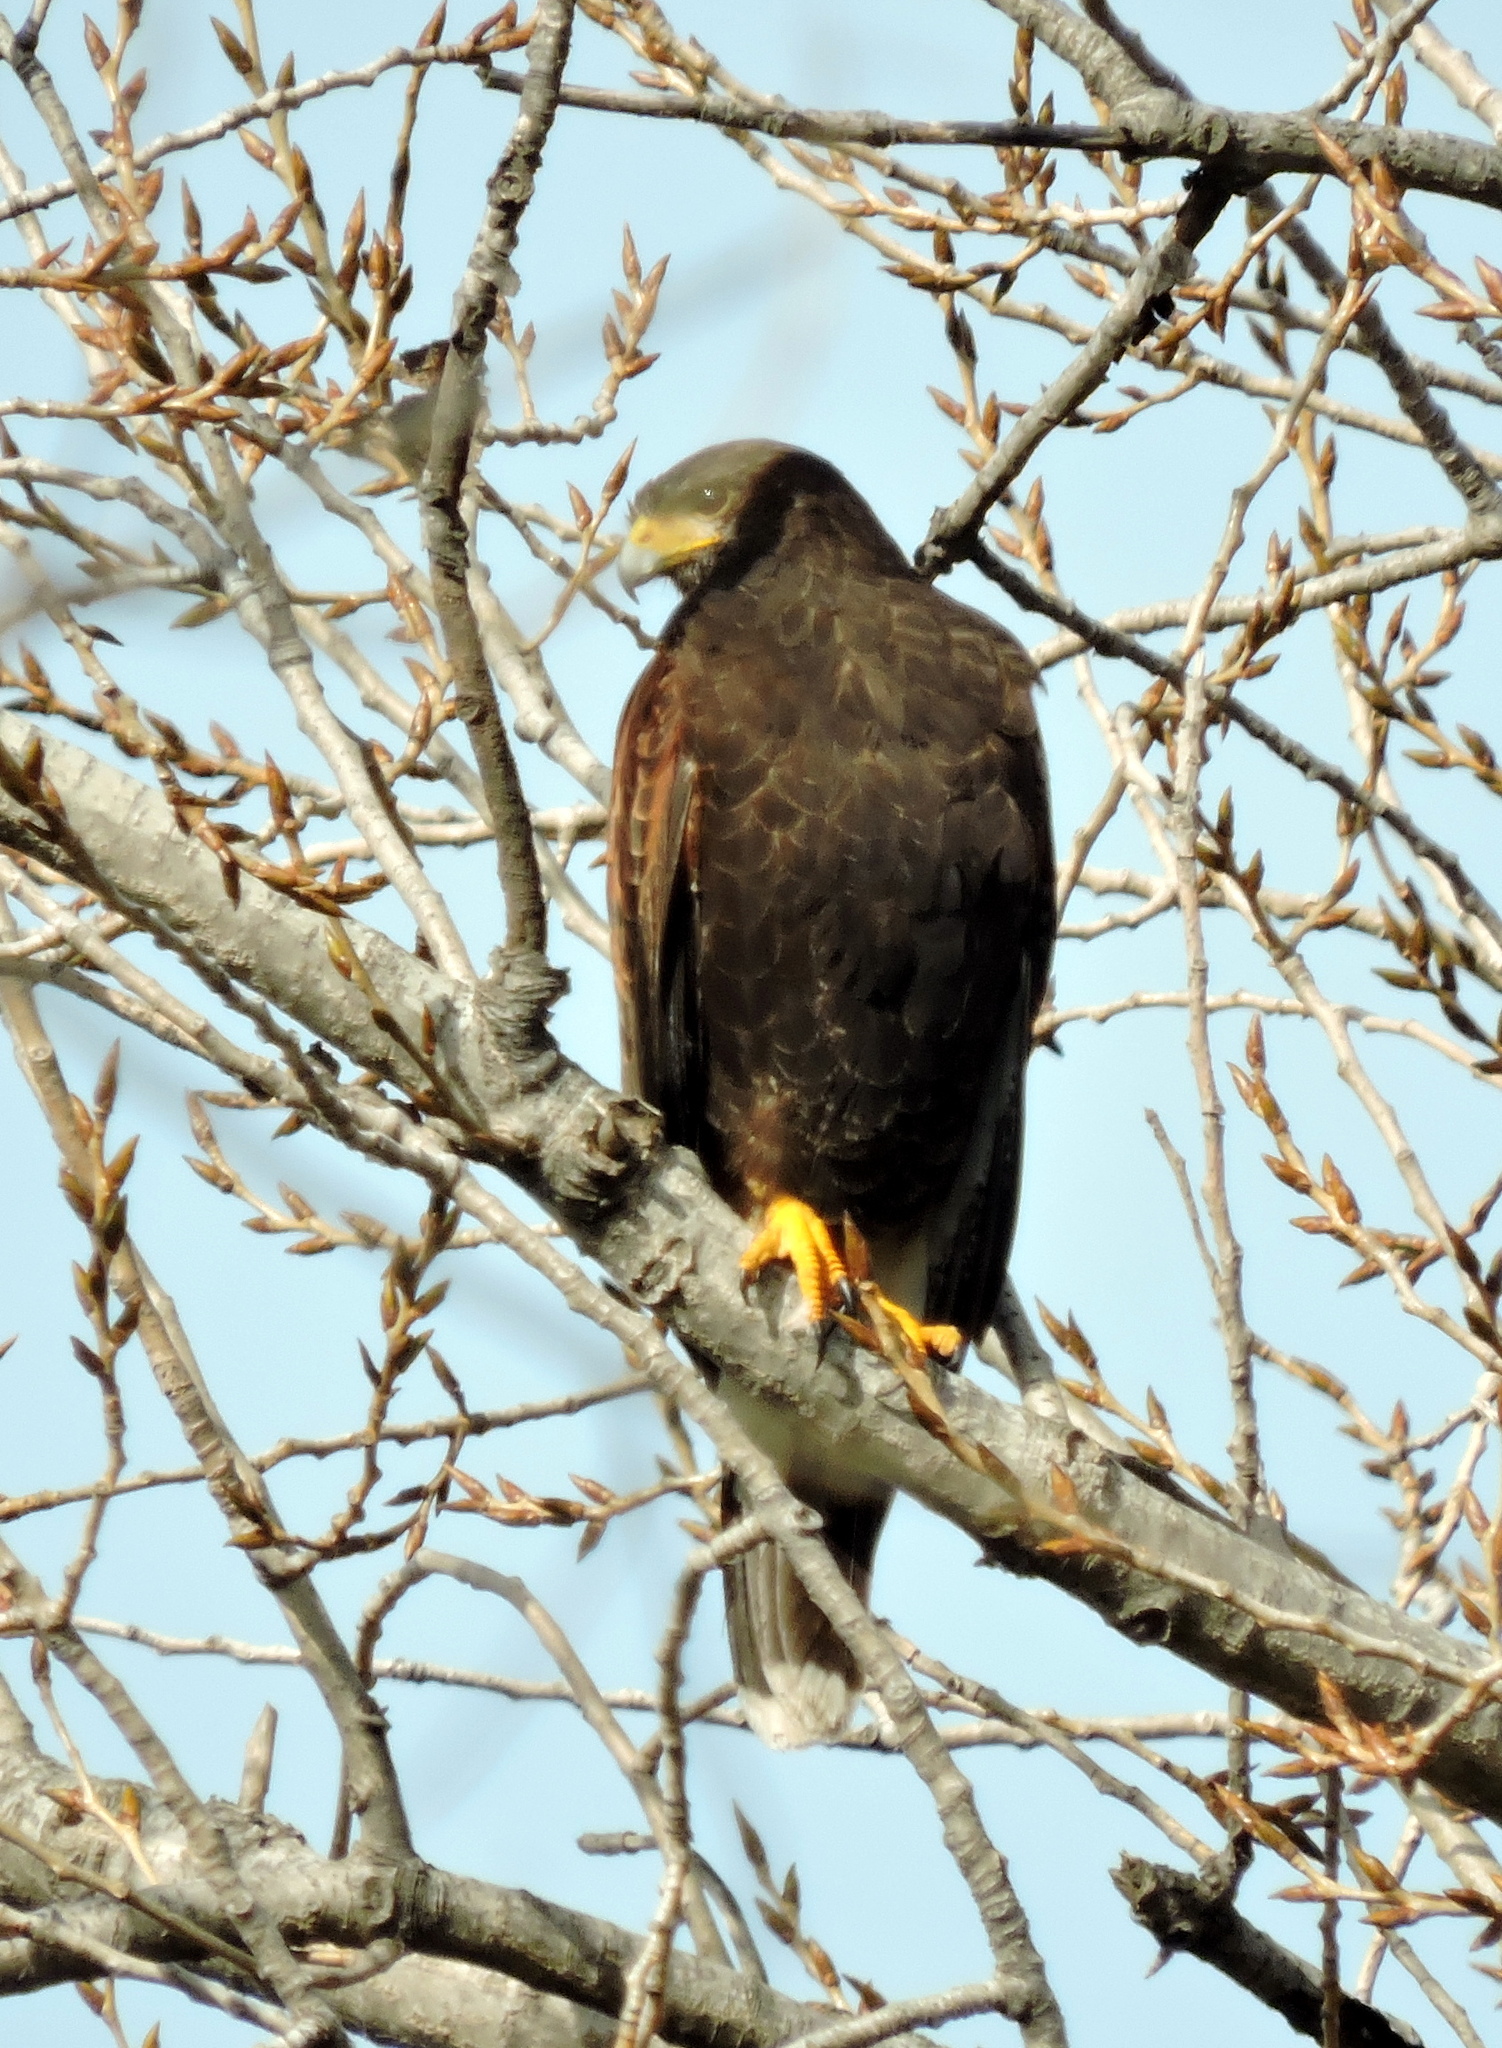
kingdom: Animalia
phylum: Chordata
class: Aves
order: Accipitriformes
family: Accipitridae
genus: Parabuteo
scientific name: Parabuteo unicinctus
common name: Harris's hawk
